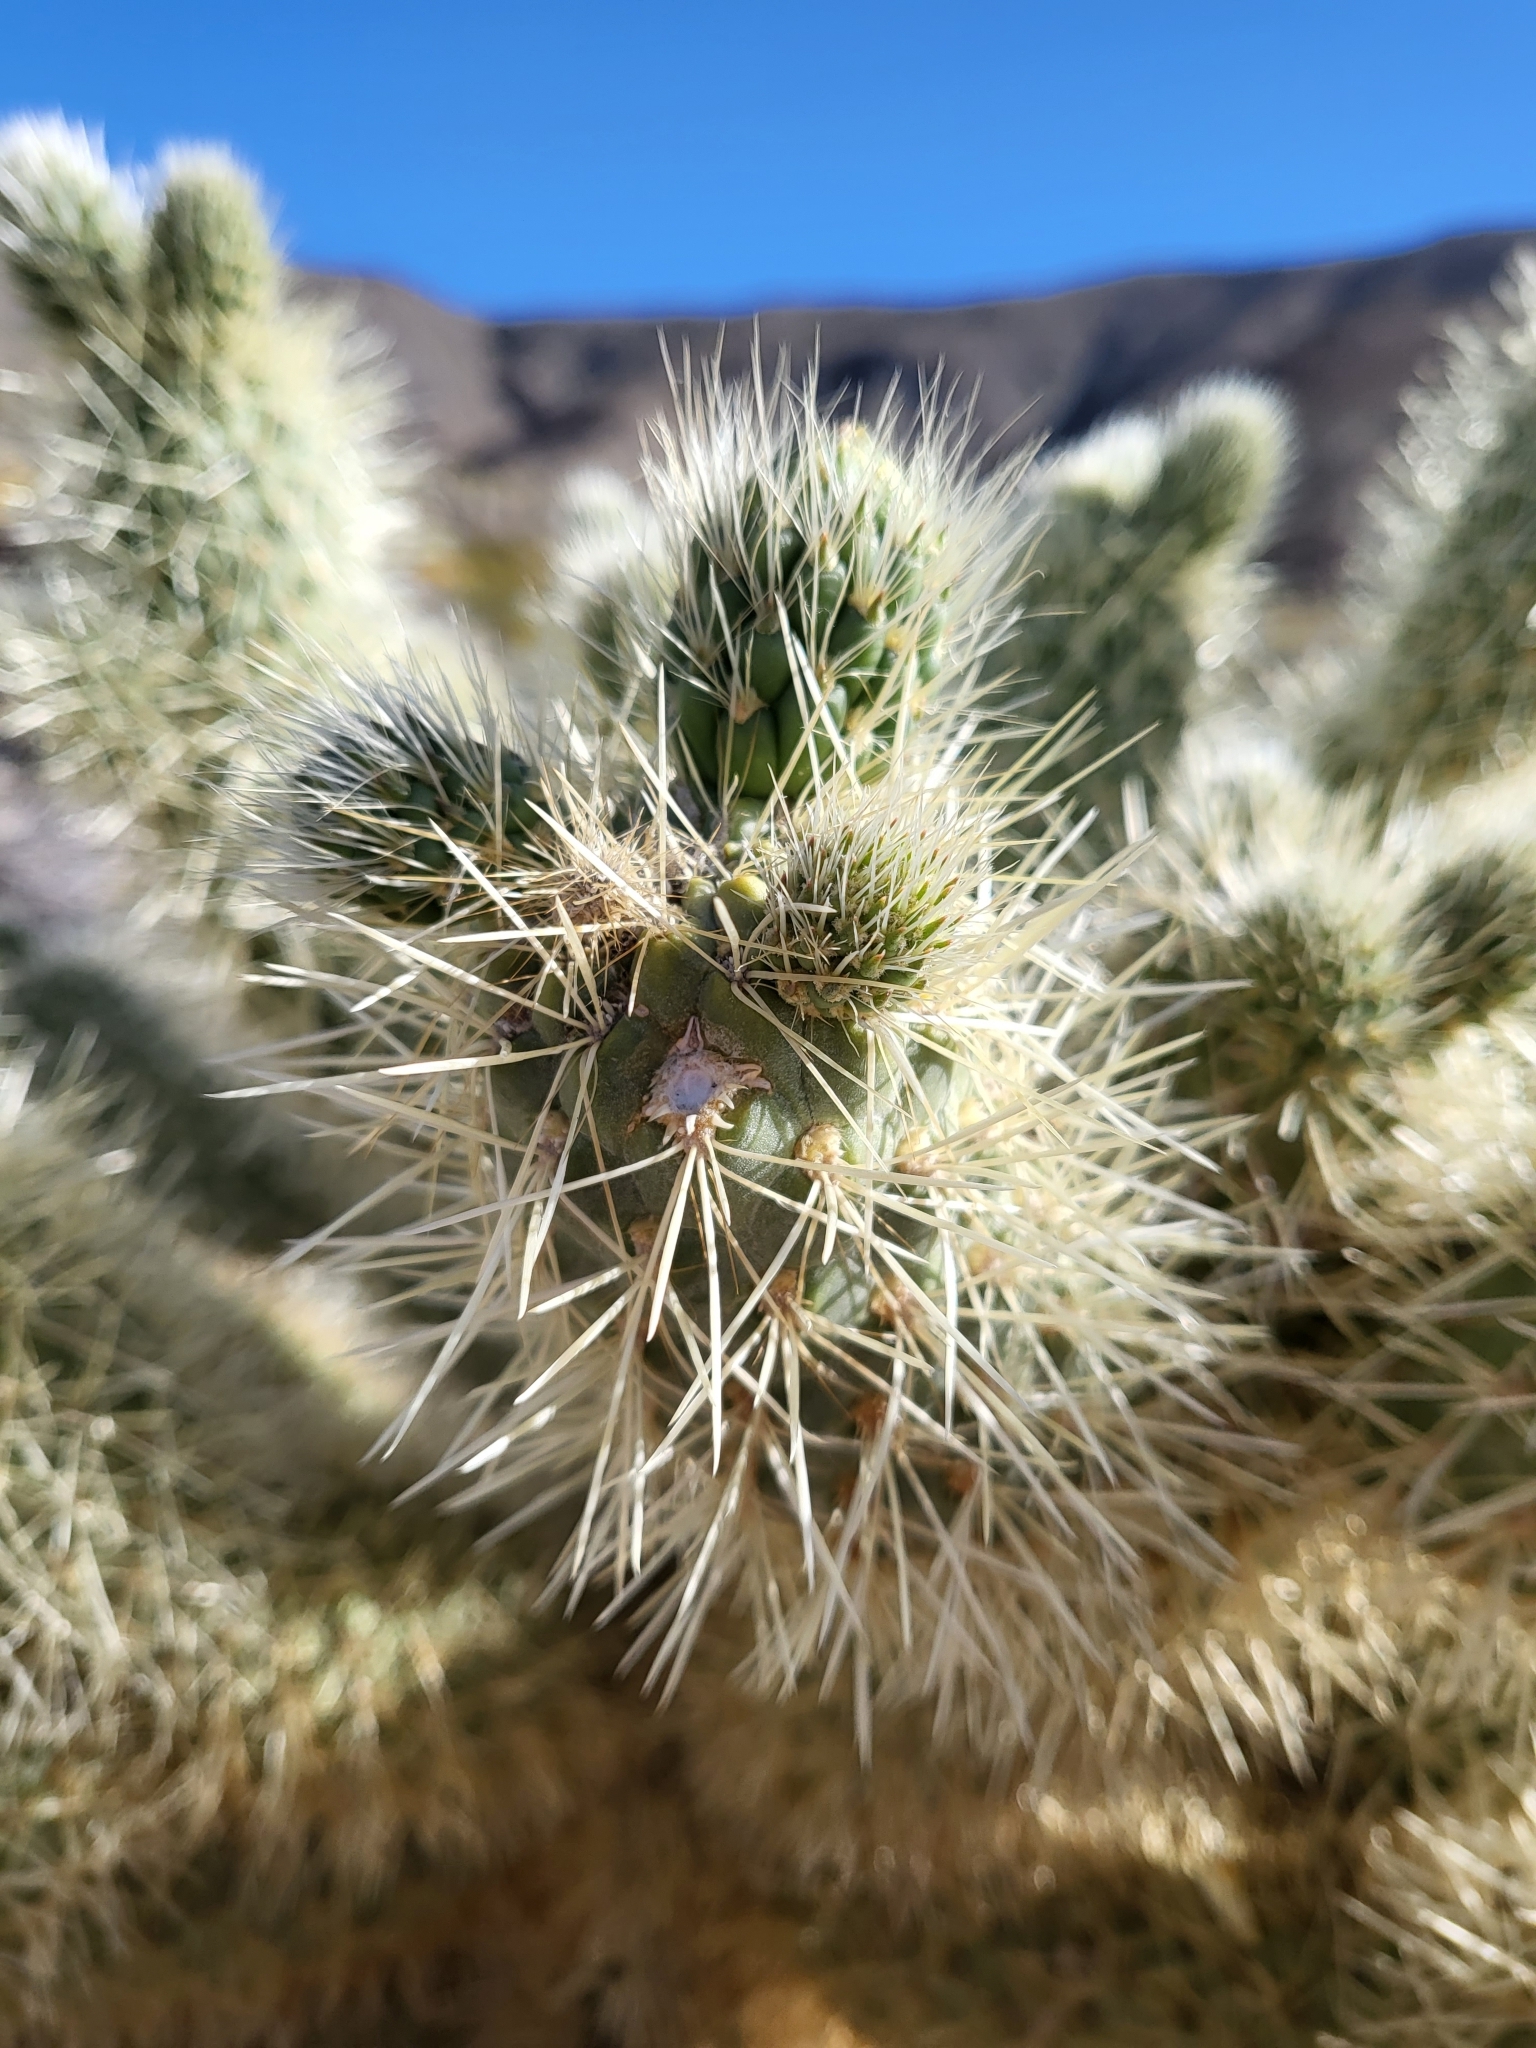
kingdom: Plantae
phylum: Tracheophyta
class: Magnoliopsida
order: Caryophyllales
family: Cactaceae
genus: Cylindropuntia
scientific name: Cylindropuntia fosbergii
